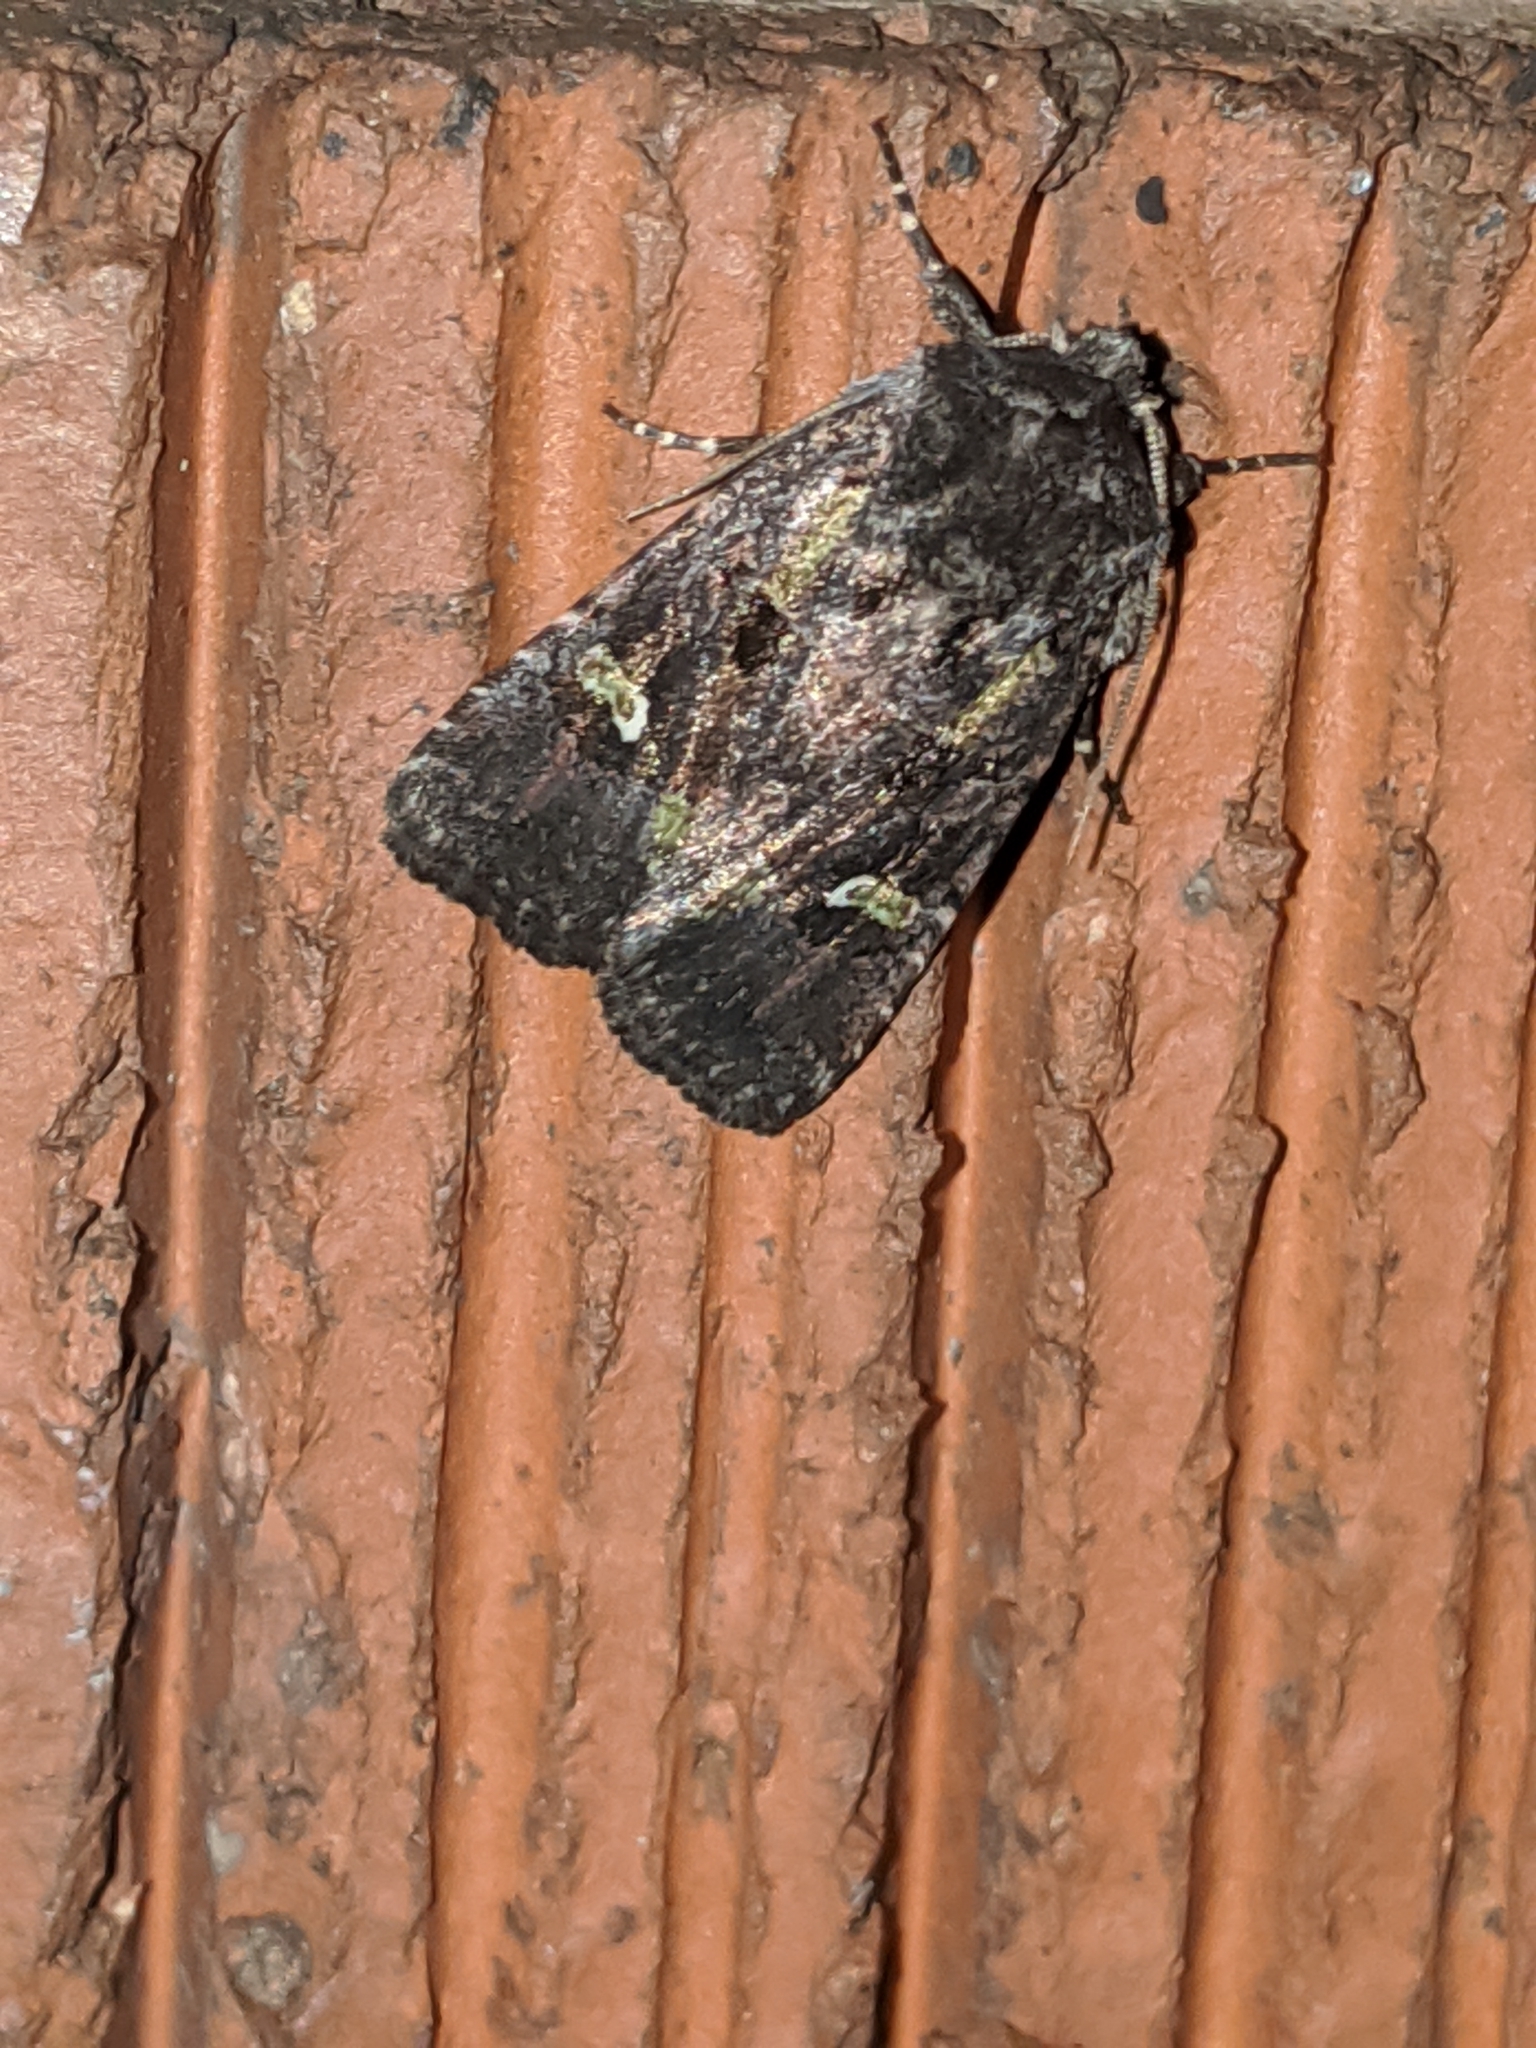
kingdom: Animalia
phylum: Arthropoda
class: Insecta
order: Lepidoptera
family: Noctuidae
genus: Lacinipolia
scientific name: Lacinipolia renigera
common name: Kidney-spotted minor
